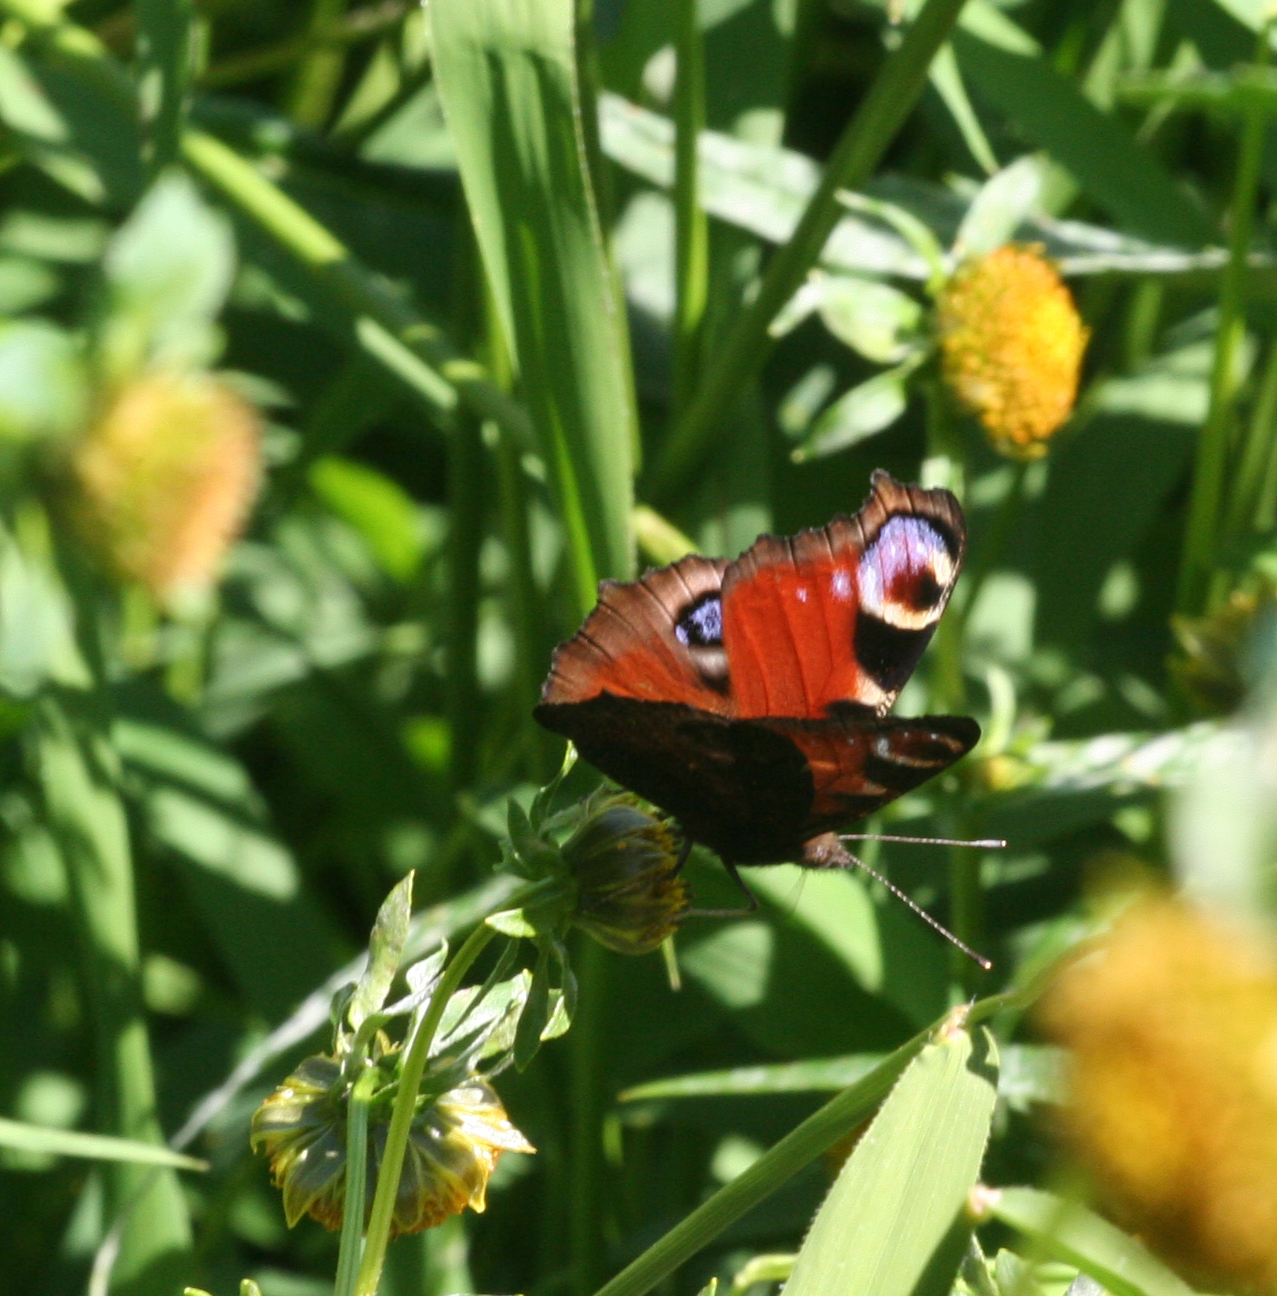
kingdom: Animalia
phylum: Arthropoda
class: Insecta
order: Lepidoptera
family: Nymphalidae
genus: Aglais
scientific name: Aglais io
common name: Peacock
